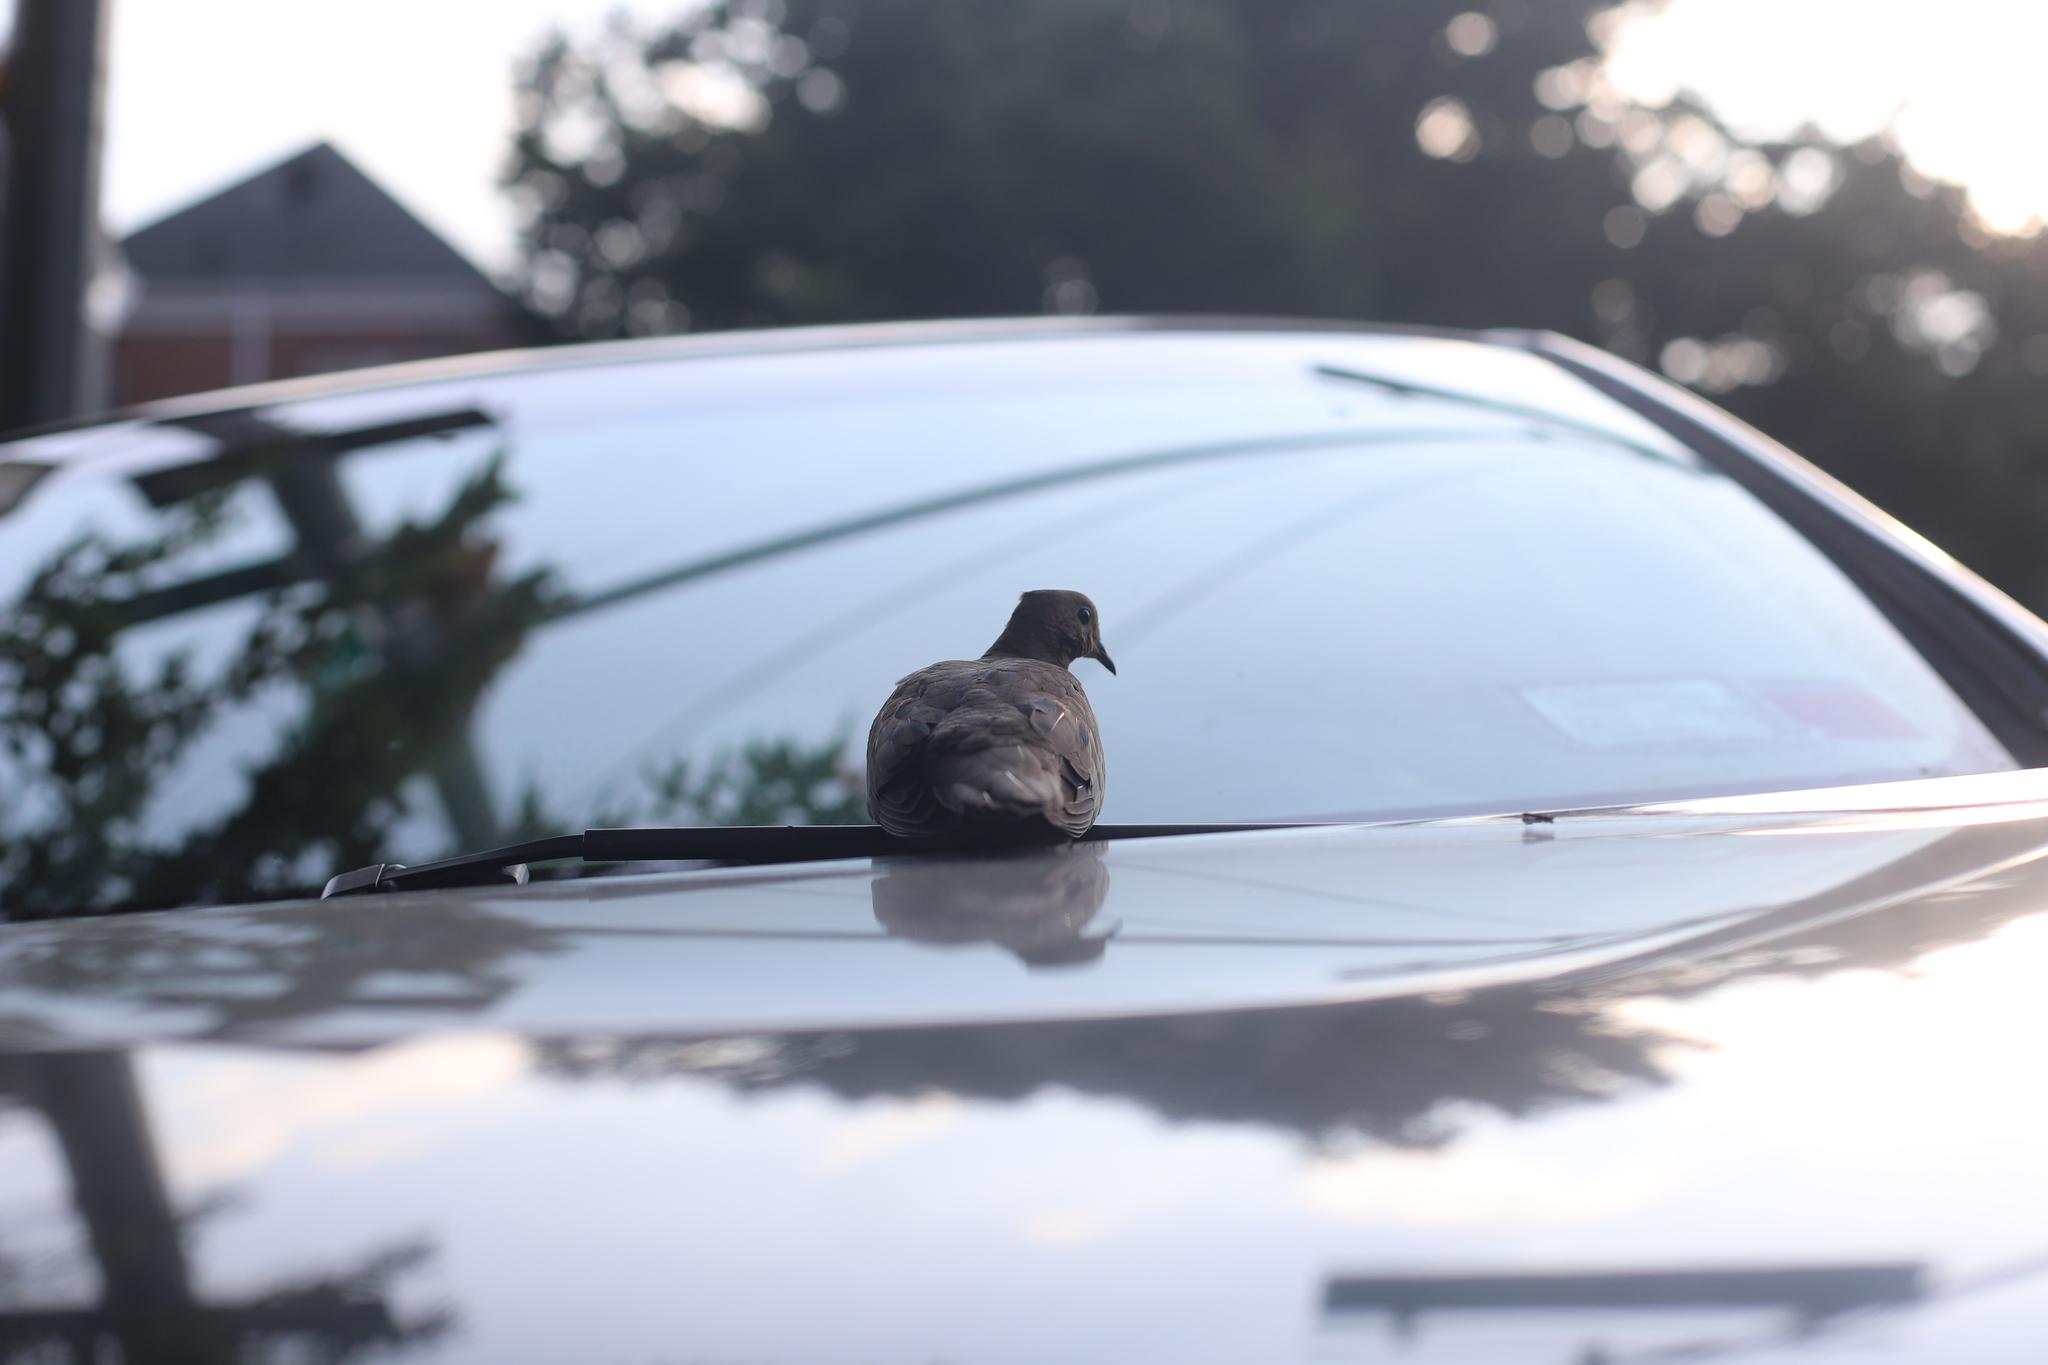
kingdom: Animalia
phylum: Chordata
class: Aves
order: Columbiformes
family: Columbidae
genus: Zenaida
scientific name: Zenaida macroura
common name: Mourning dove
